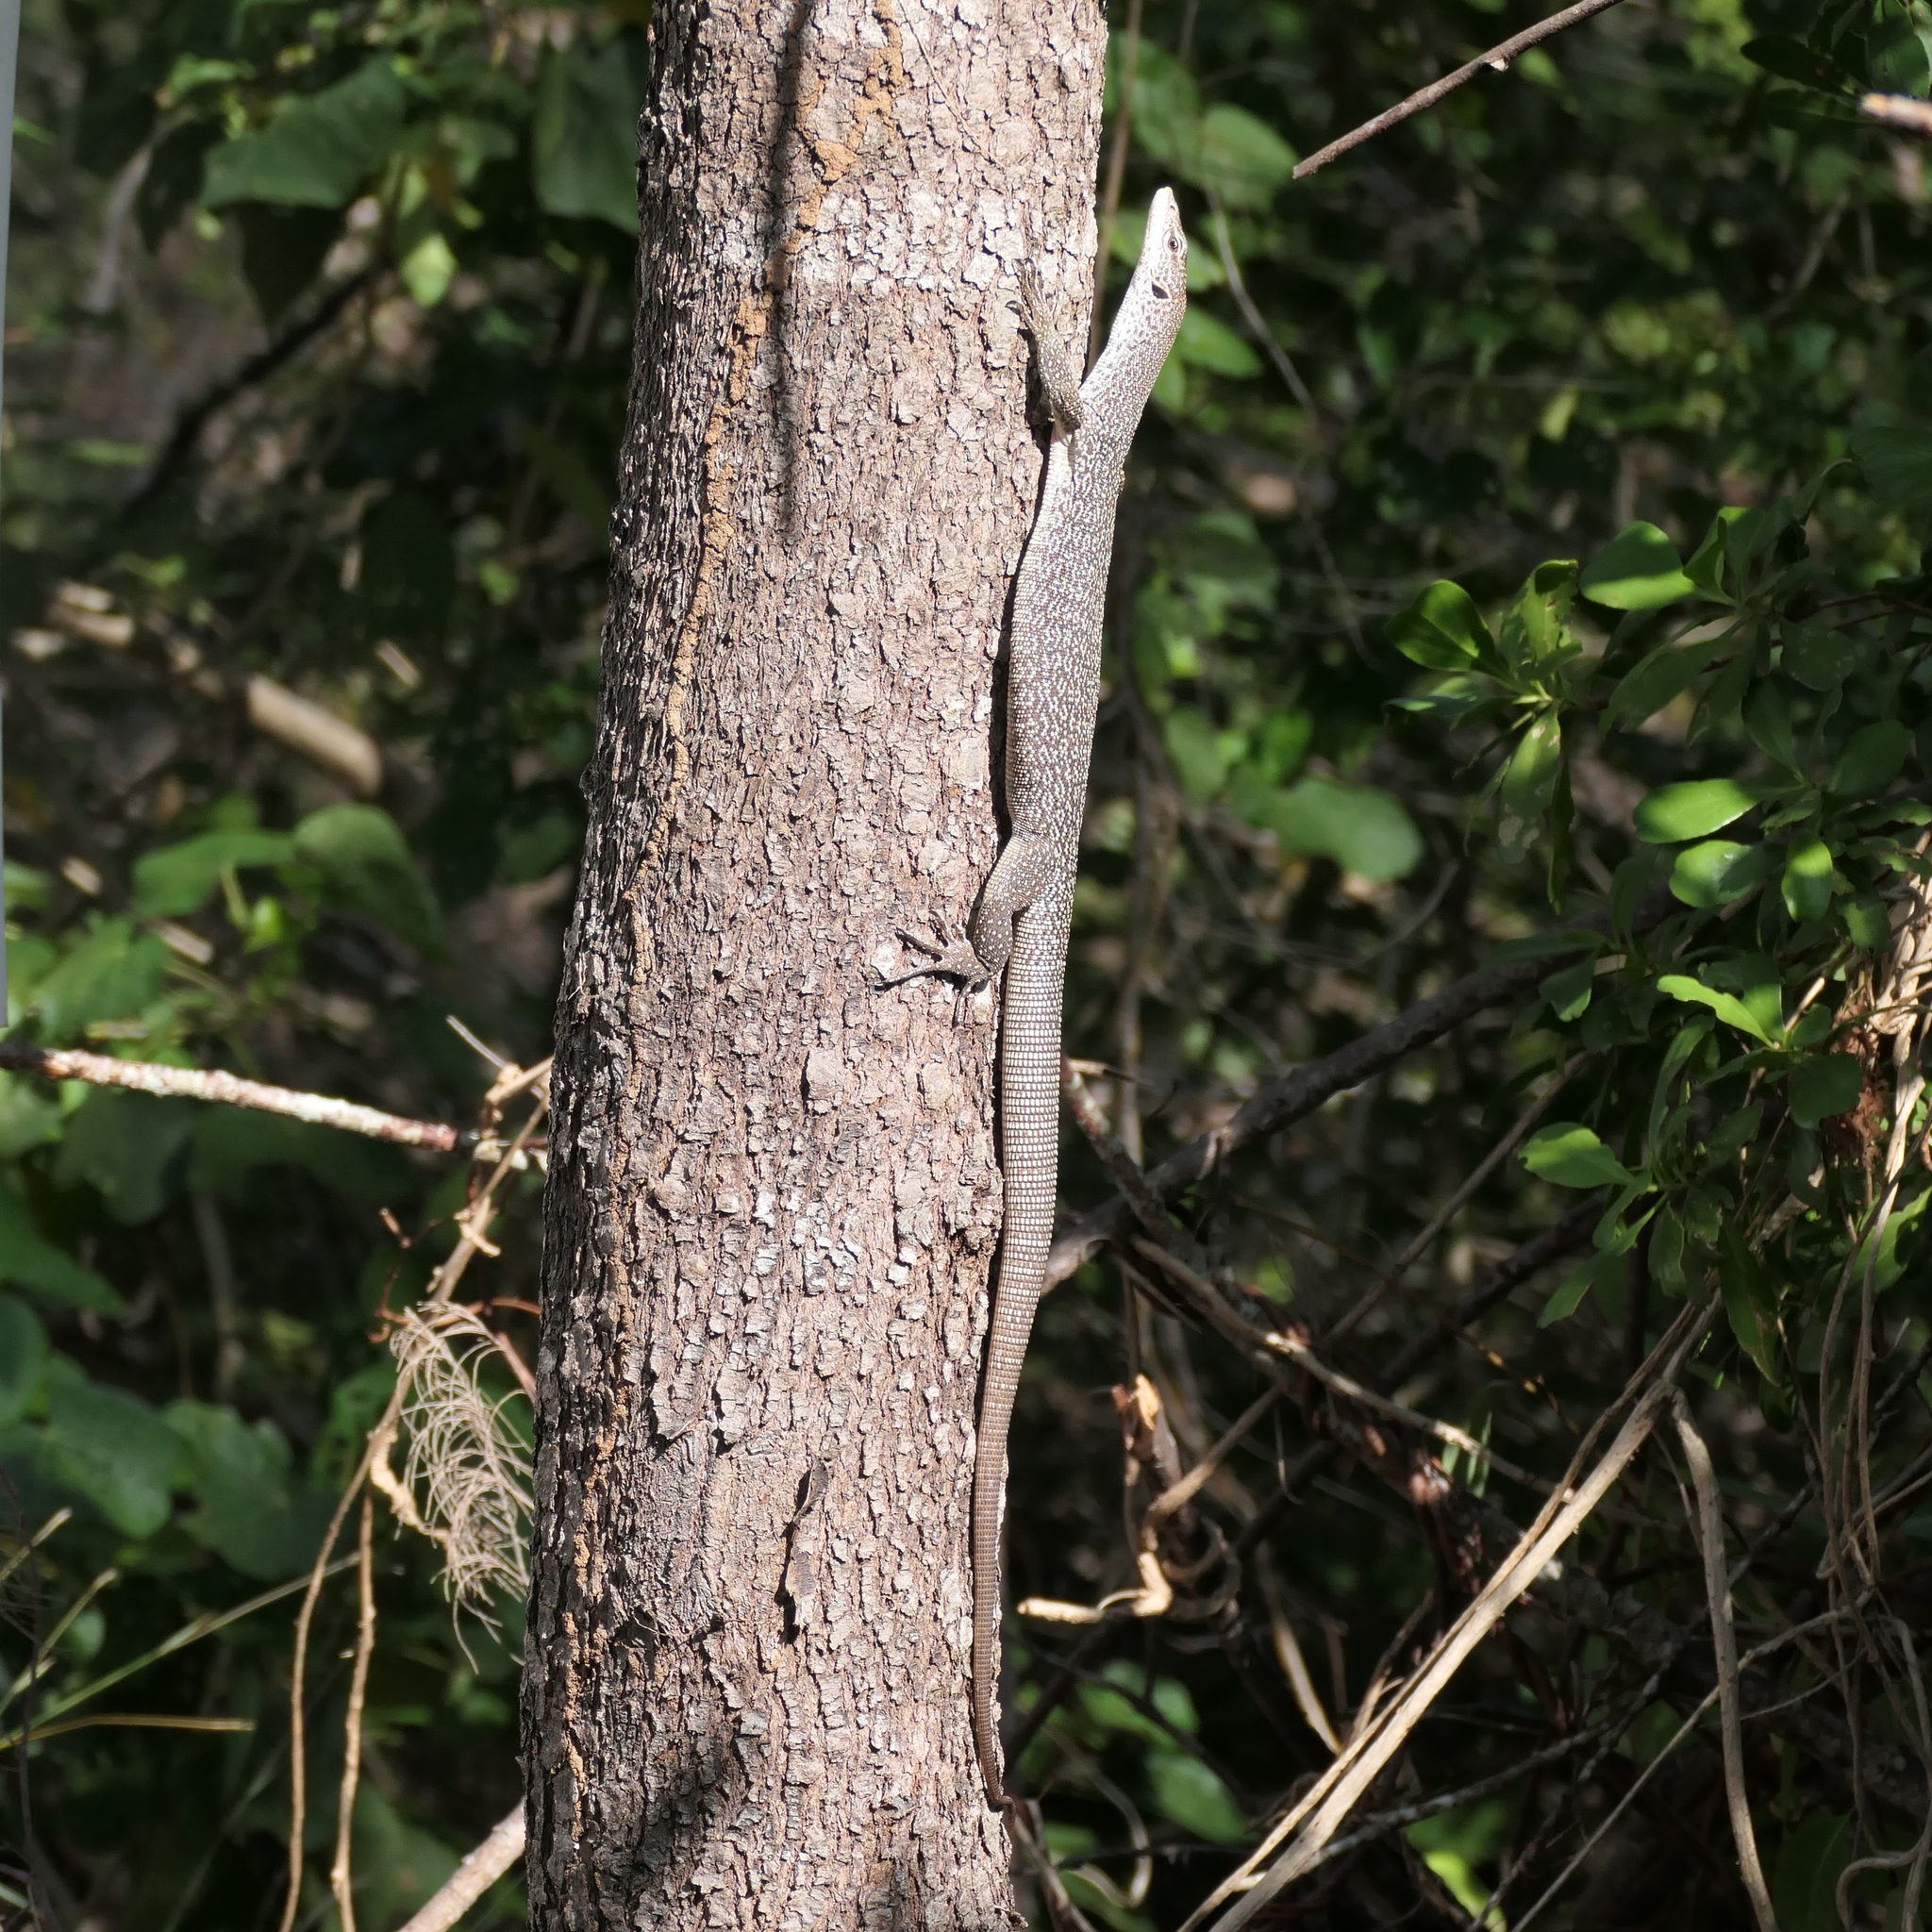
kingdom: Animalia
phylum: Chordata
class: Squamata
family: Varanidae
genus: Varanus
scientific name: Varanus scalaris
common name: Banded tree monitor
